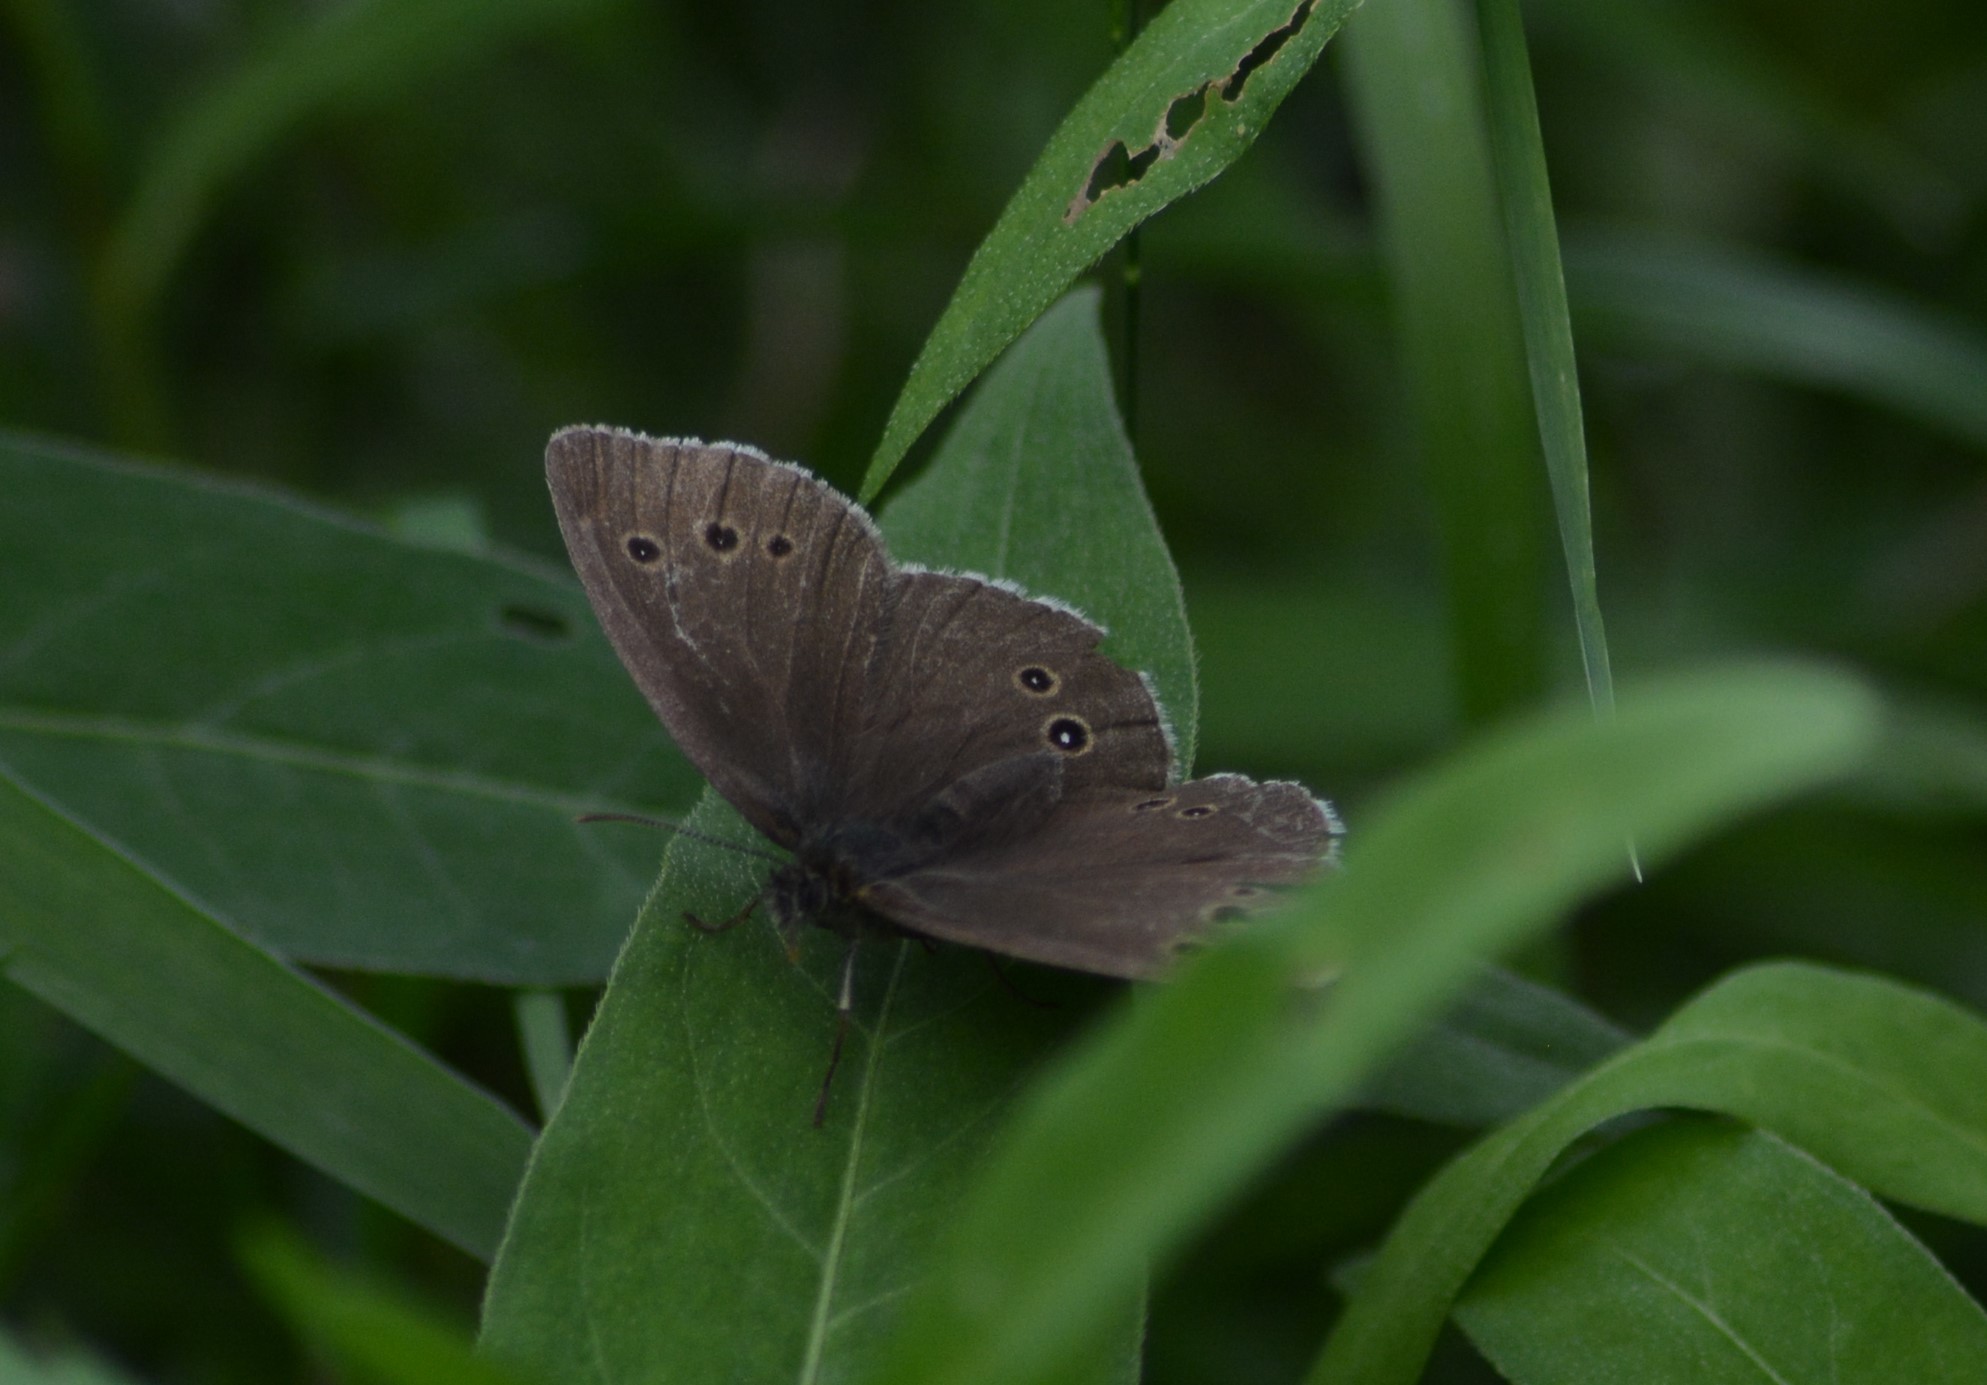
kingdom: Animalia
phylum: Arthropoda
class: Insecta
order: Lepidoptera
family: Nymphalidae
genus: Aphantopus
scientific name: Aphantopus hyperantus
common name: Ringlet
